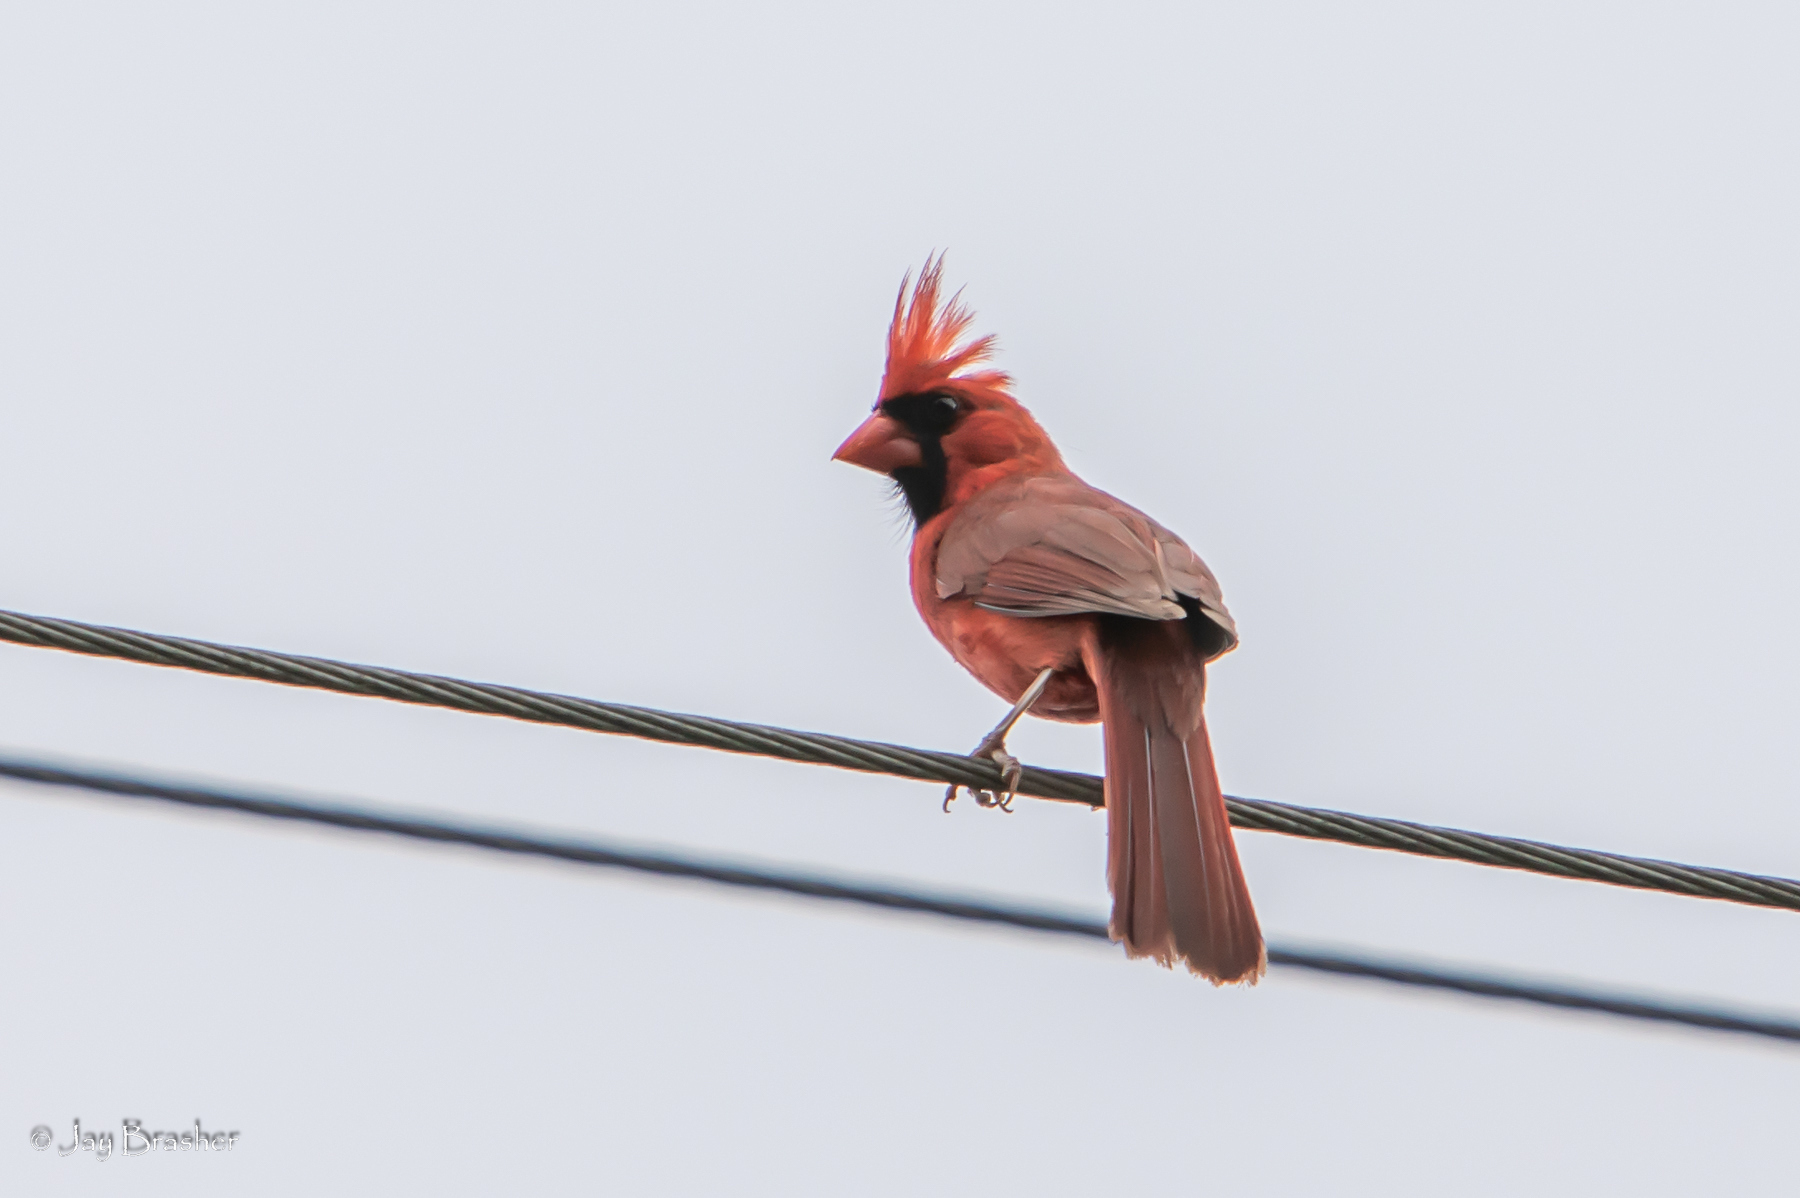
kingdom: Animalia
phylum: Chordata
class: Aves
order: Passeriformes
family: Cardinalidae
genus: Cardinalis
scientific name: Cardinalis cardinalis
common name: Northern cardinal
